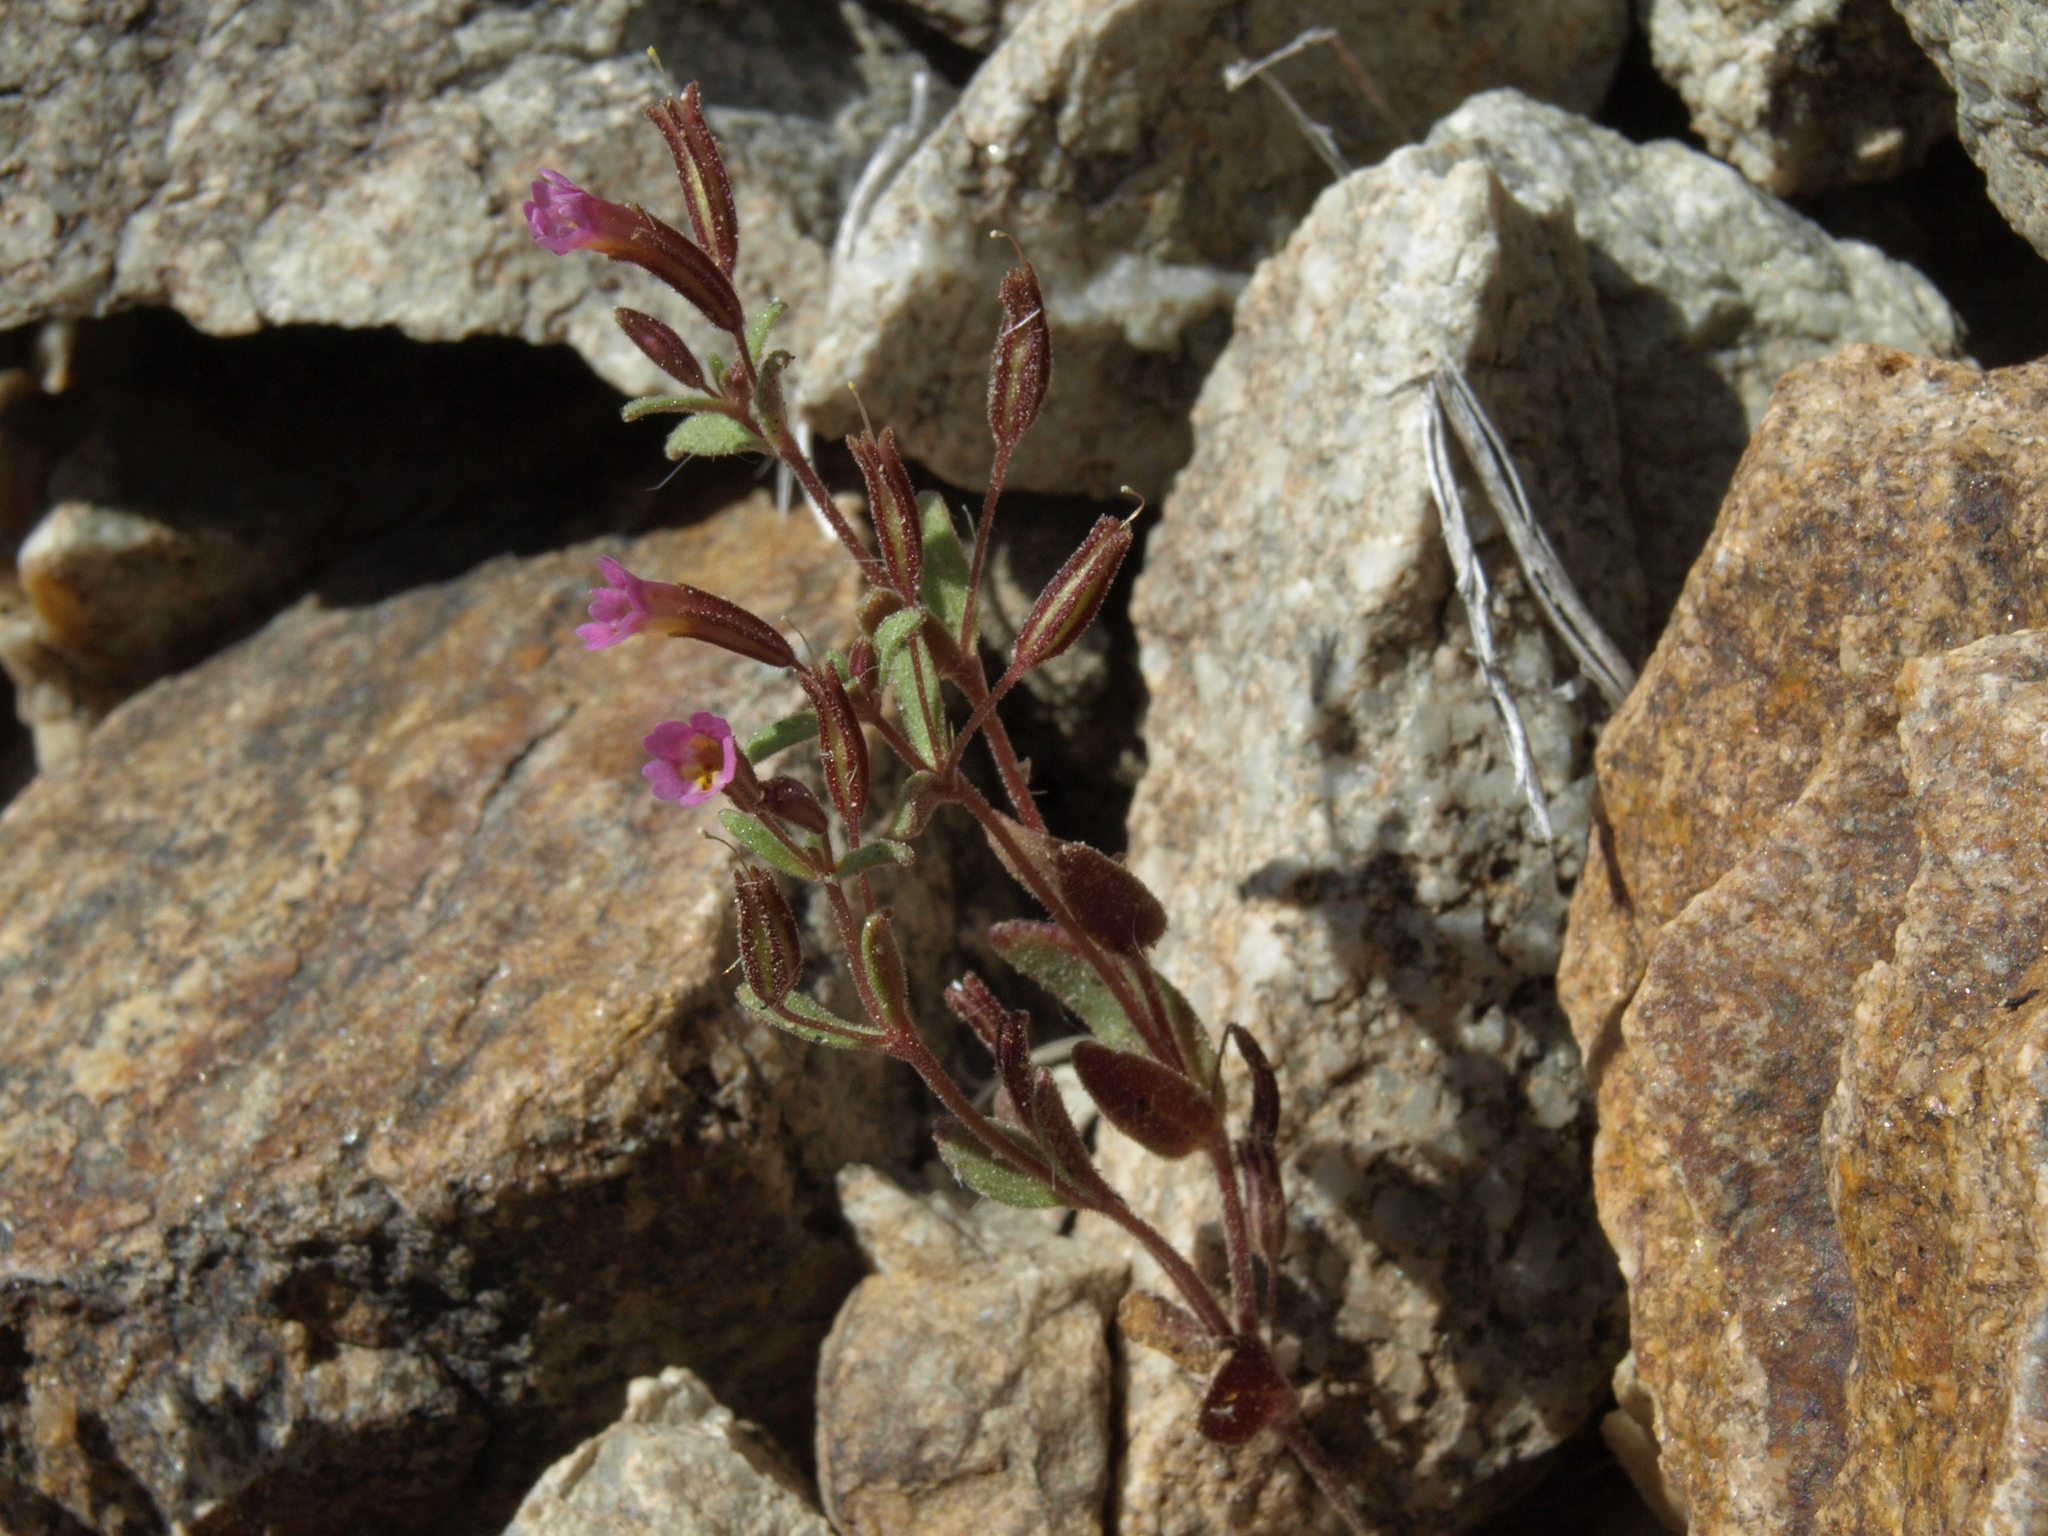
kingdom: Plantae
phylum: Tracheophyta
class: Magnoliopsida
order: Lamiales
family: Phrymaceae
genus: Erythranthe
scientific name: Erythranthe rubella
